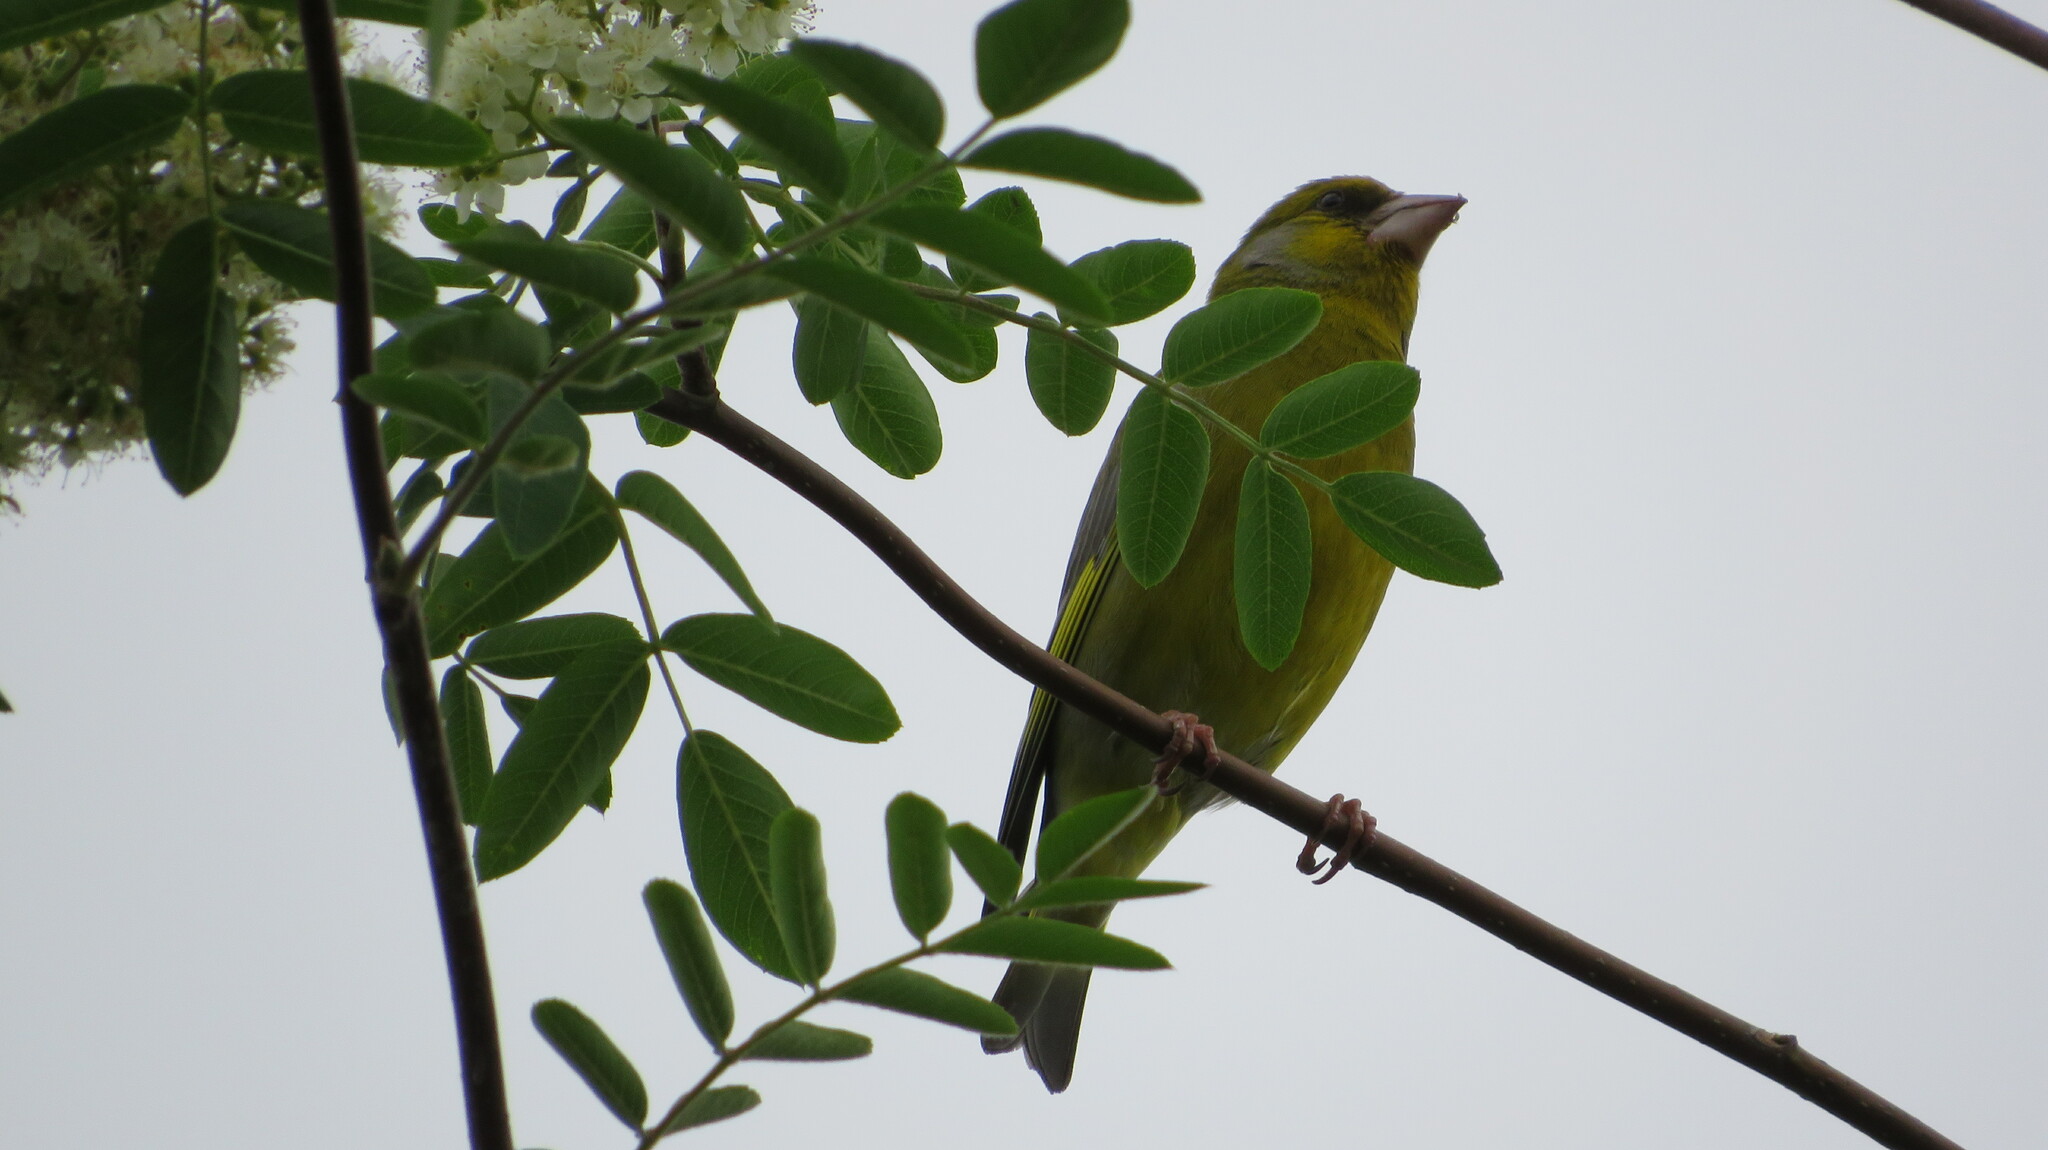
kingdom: Plantae
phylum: Tracheophyta
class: Liliopsida
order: Poales
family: Poaceae
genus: Chloris
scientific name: Chloris chloris
